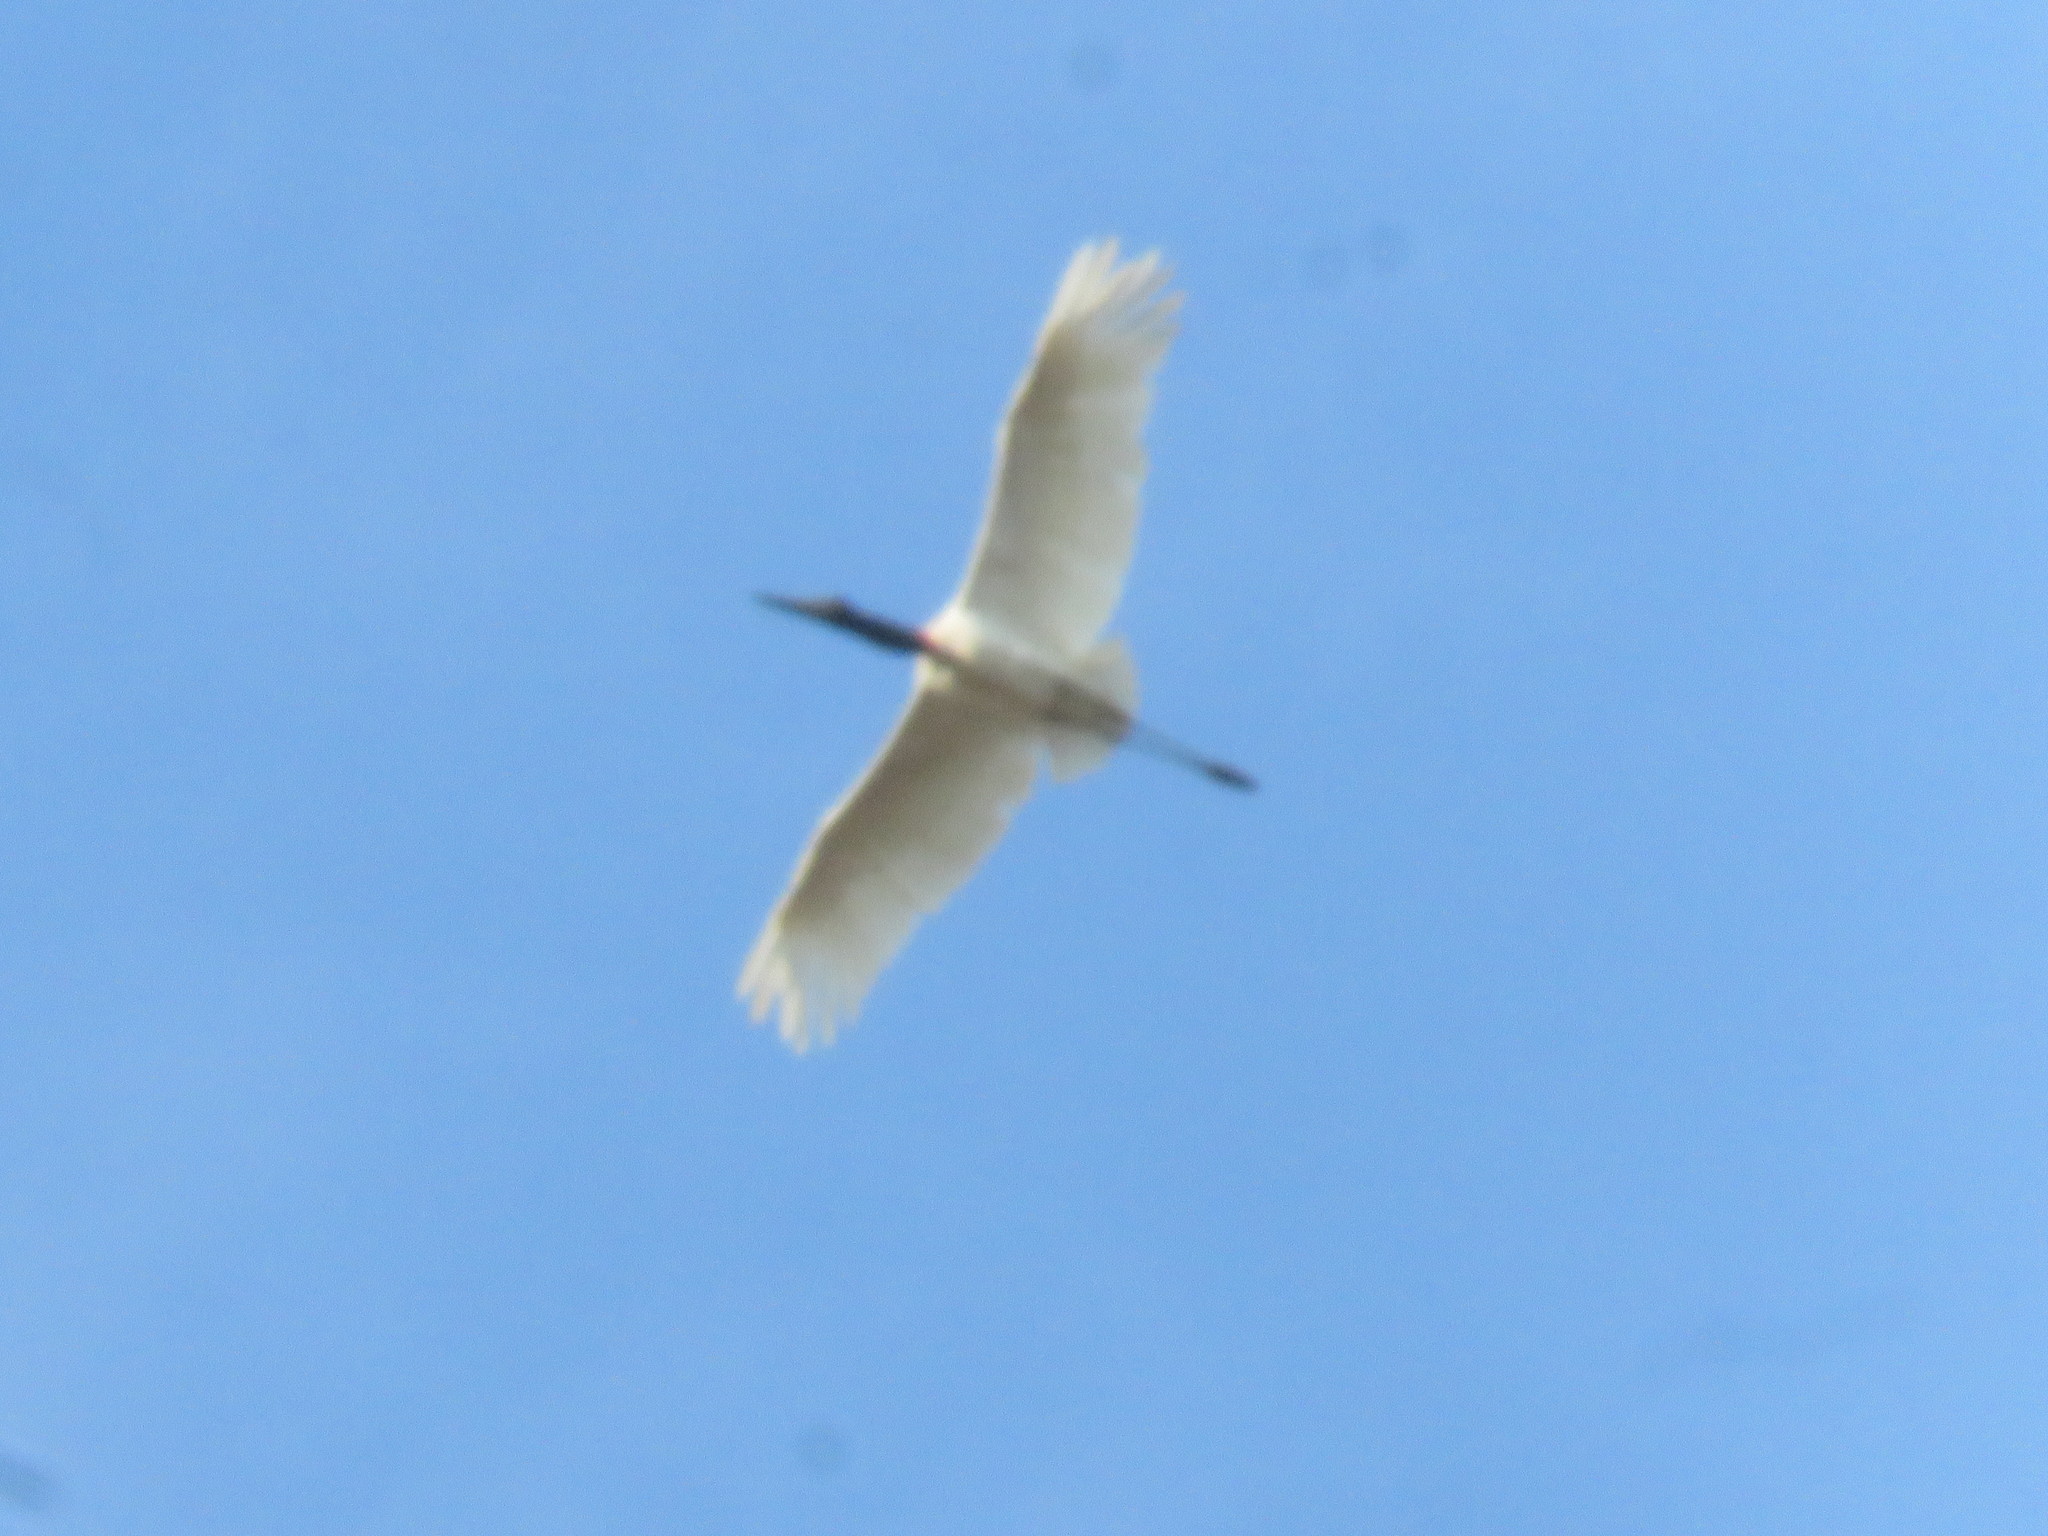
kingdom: Animalia
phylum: Chordata
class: Aves
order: Ciconiiformes
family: Ciconiidae
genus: Jabiru
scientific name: Jabiru mycteria
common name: Jabiru
